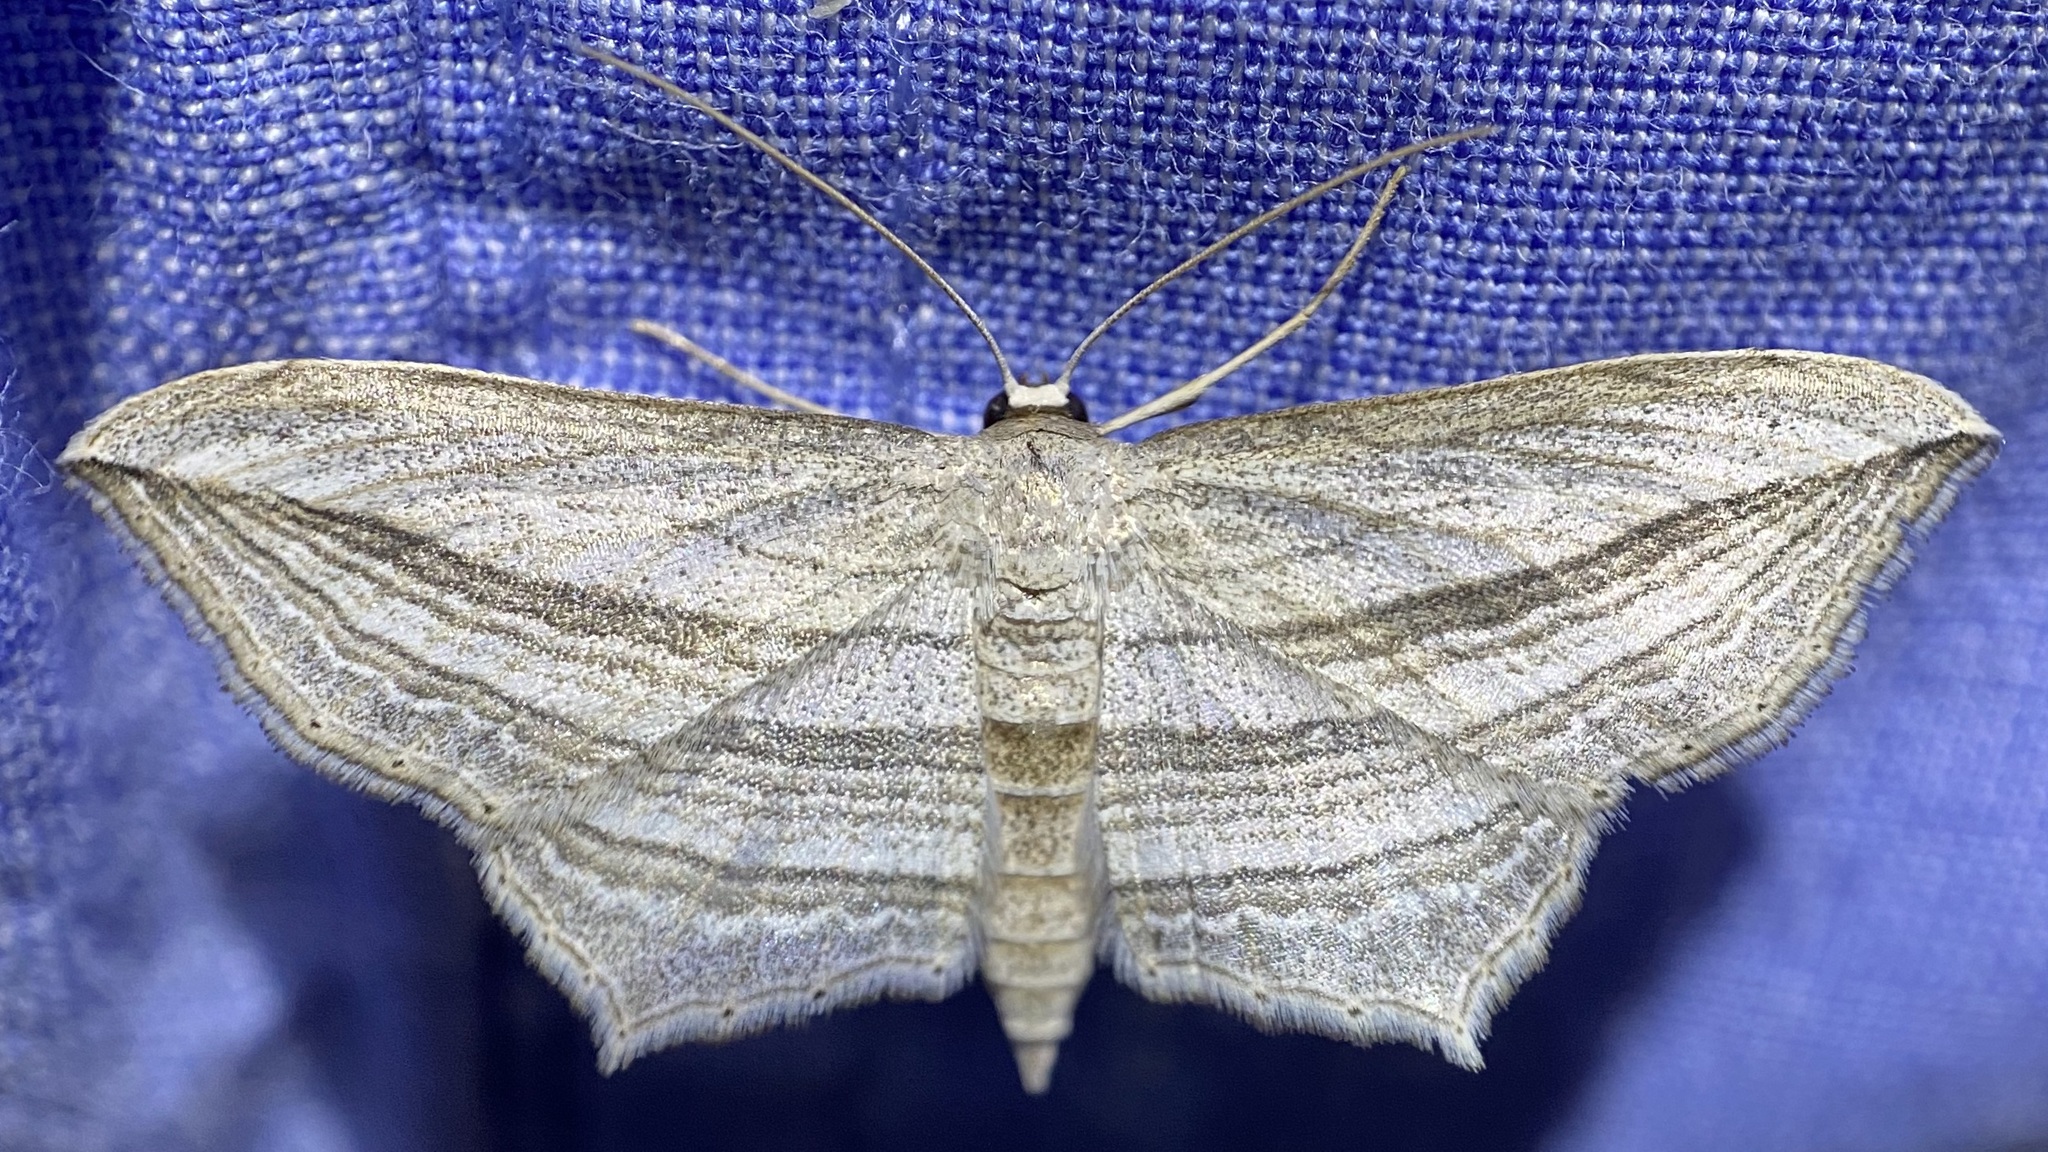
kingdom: Animalia
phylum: Arthropoda
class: Insecta
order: Lepidoptera
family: Geometridae
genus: Arcobara
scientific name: Arcobara multilineata
